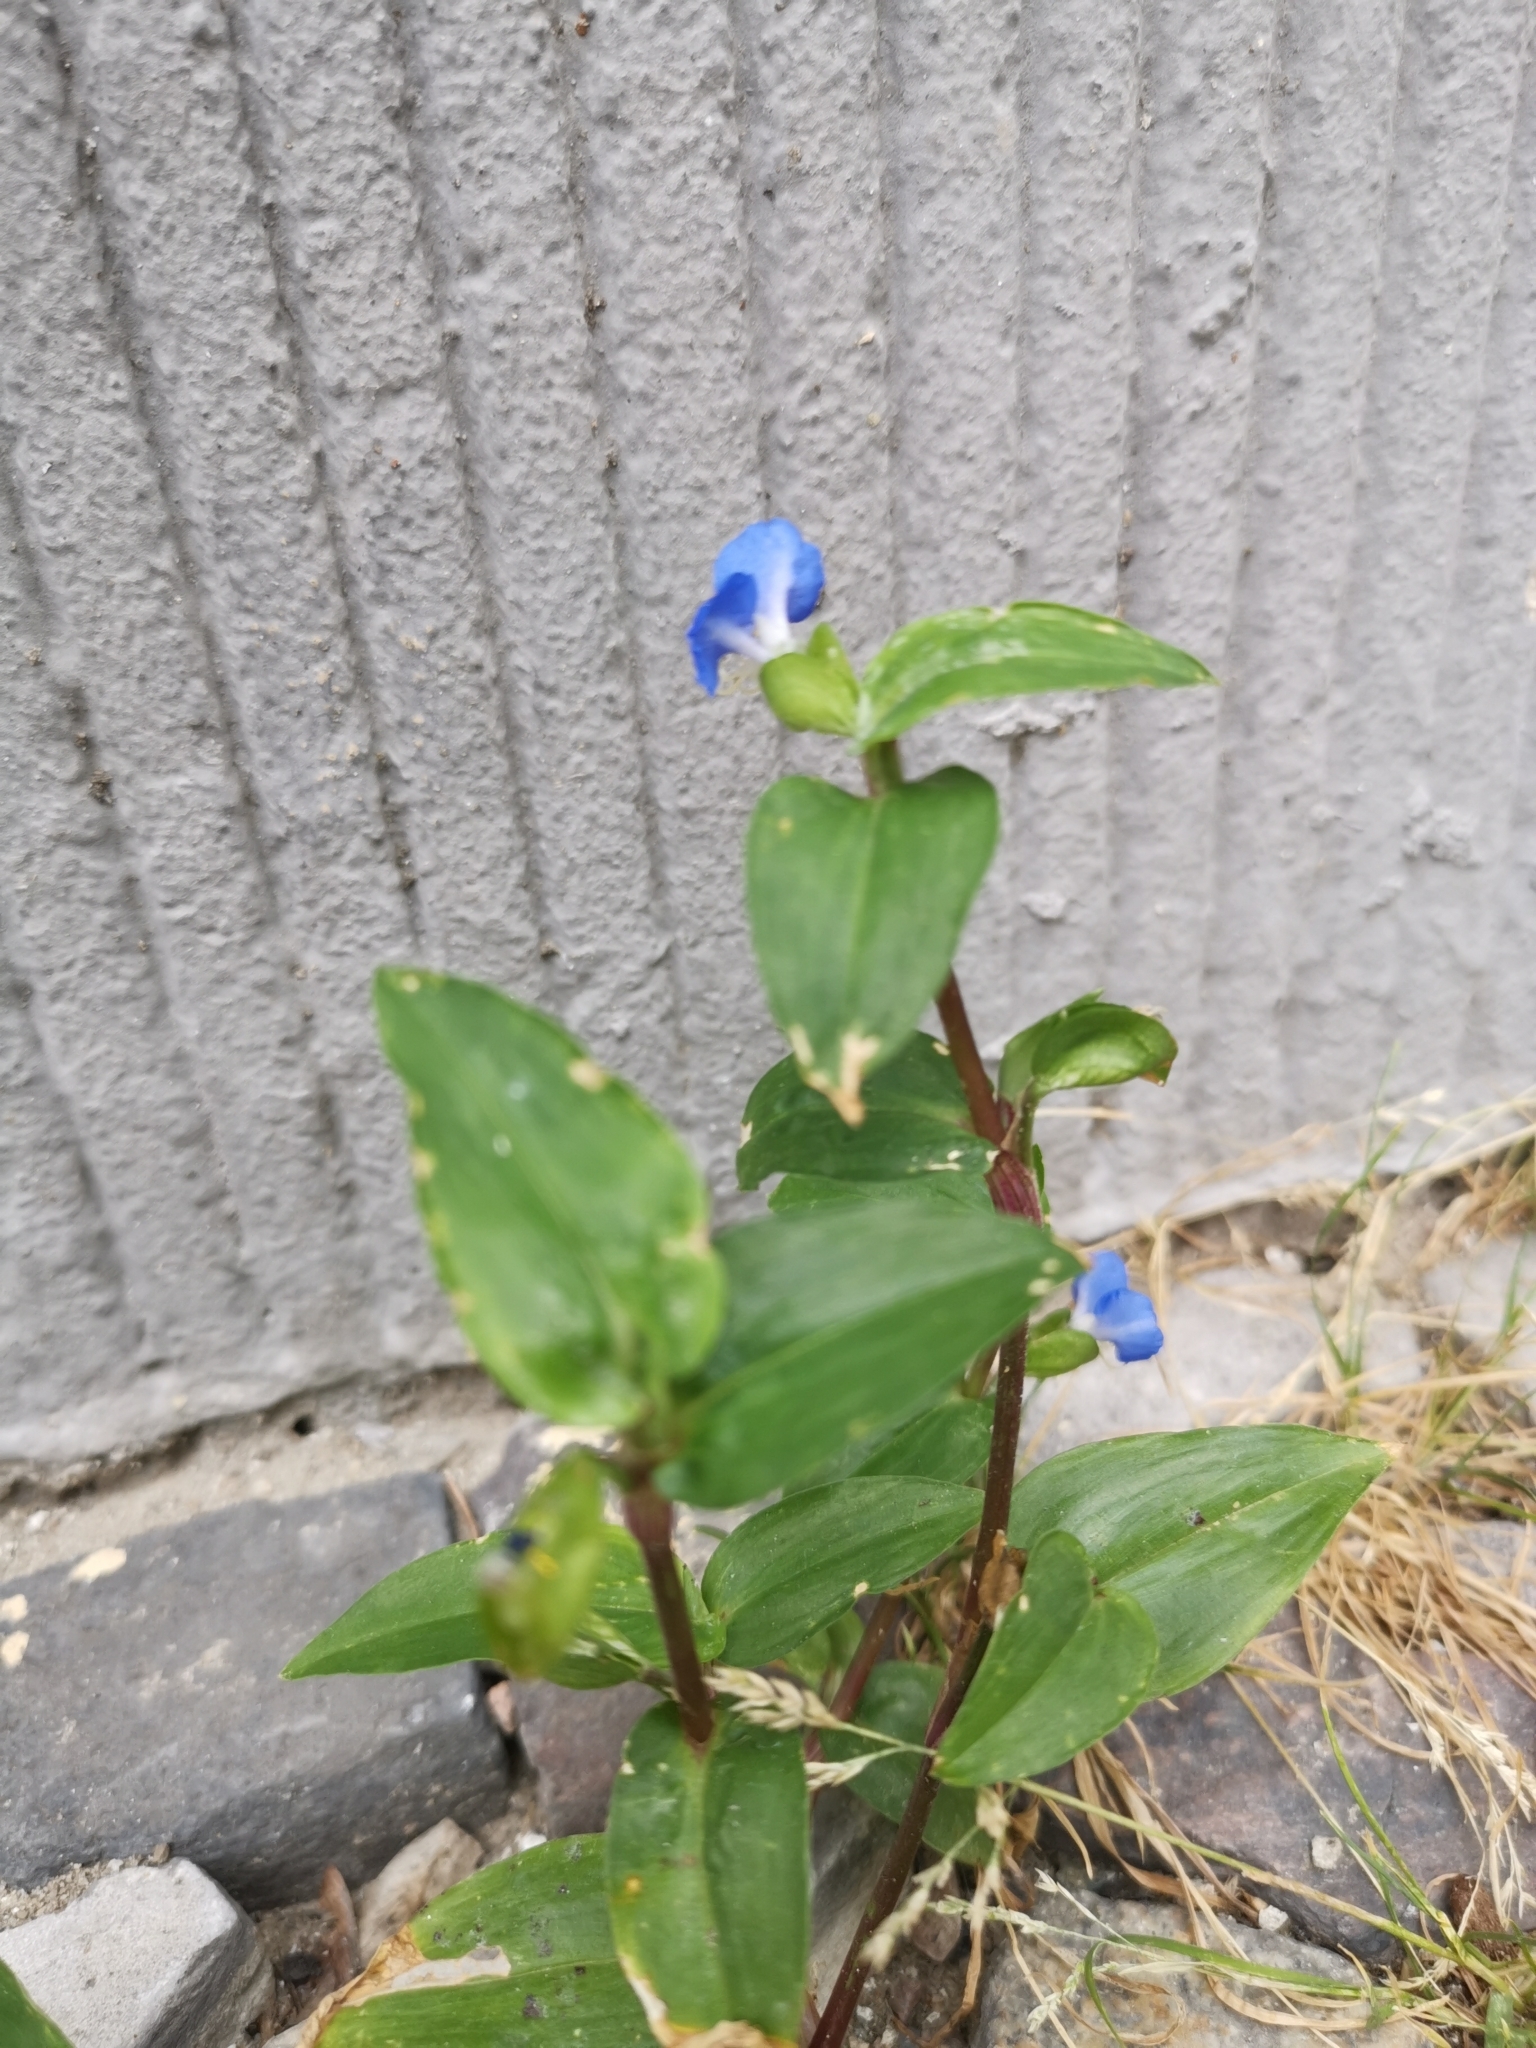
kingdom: Plantae
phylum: Tracheophyta
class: Liliopsida
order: Commelinales
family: Commelinaceae
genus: Commelina
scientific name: Commelina communis
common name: Asiatic dayflower
